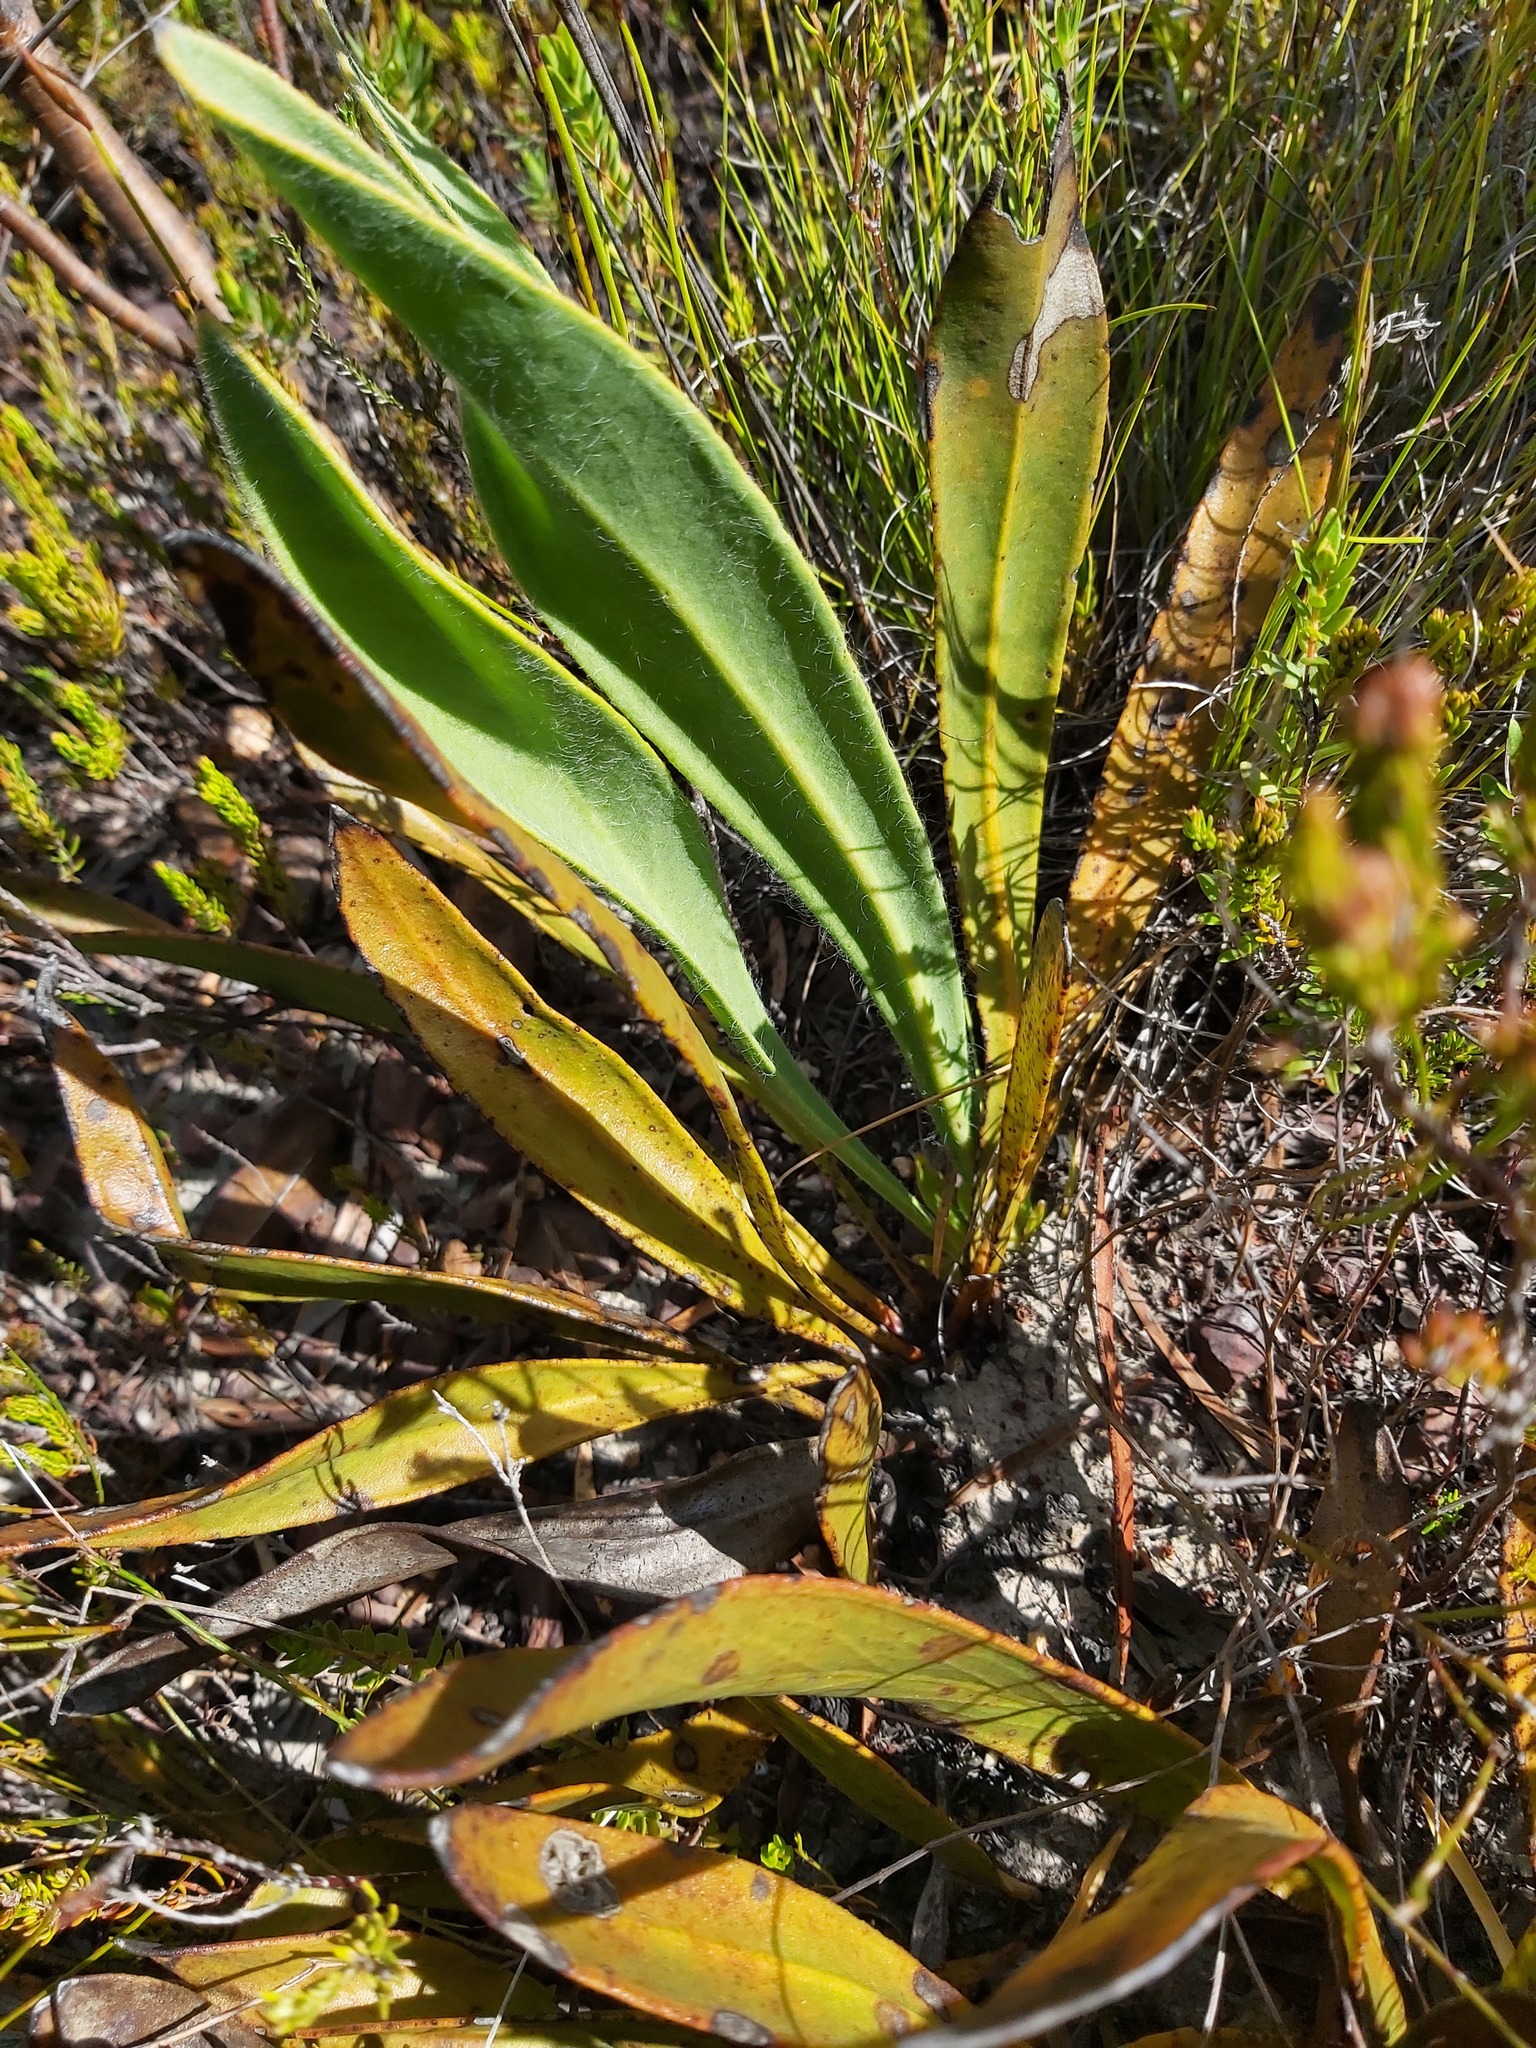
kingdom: Plantae
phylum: Tracheophyta
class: Magnoliopsida
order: Proteales
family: Proteaceae
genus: Protea
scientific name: Protea scabra
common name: Sandpaper-leaf sugarbush
